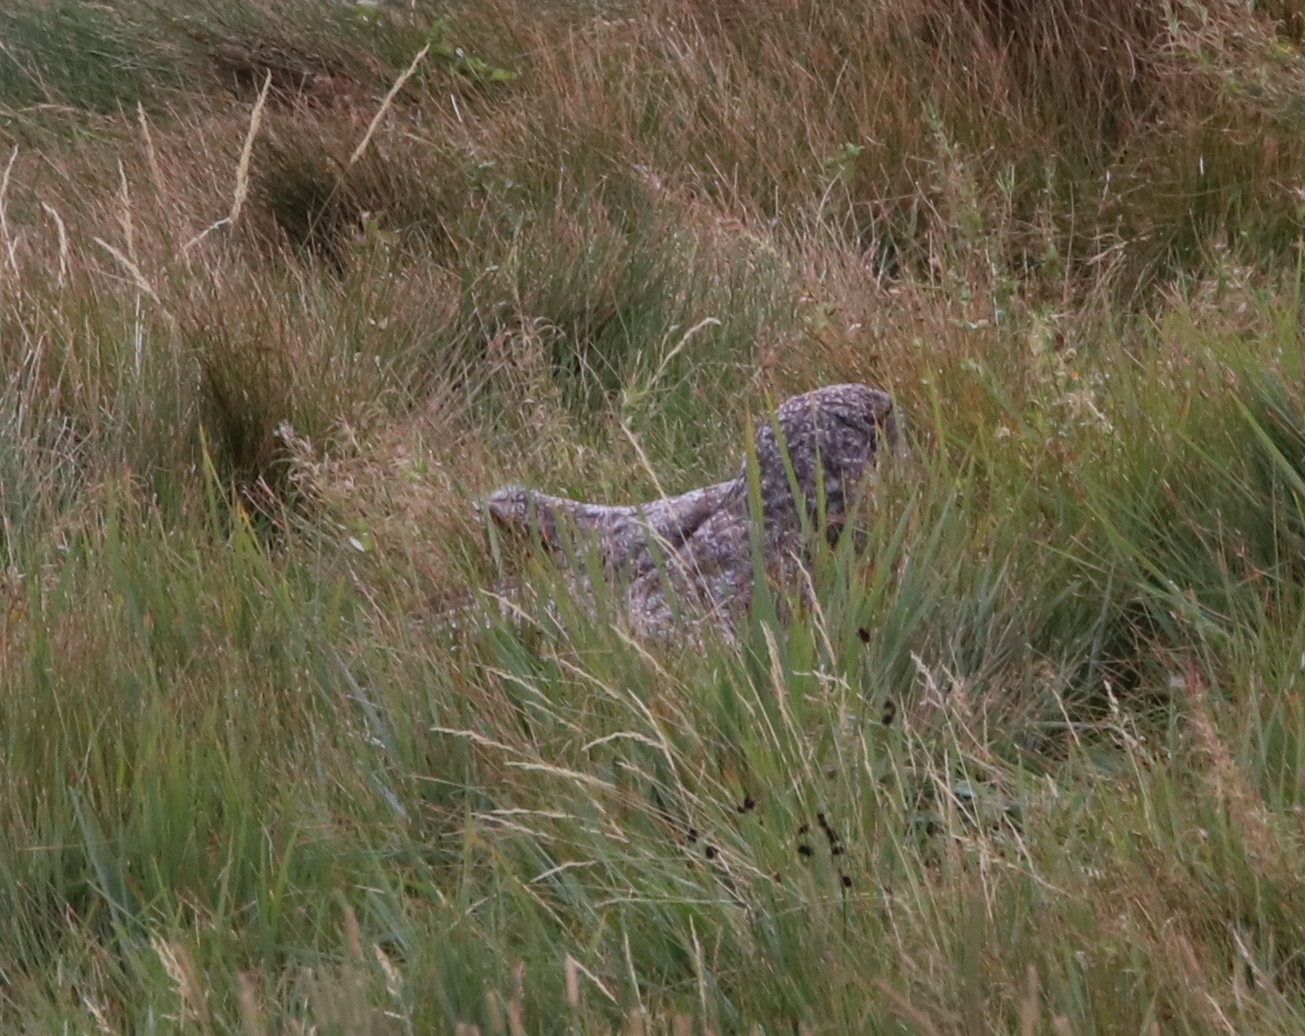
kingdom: Animalia
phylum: Chordata
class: Aves
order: Strigiformes
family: Strigidae
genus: Strix
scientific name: Strix nebulosa
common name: Great grey owl
